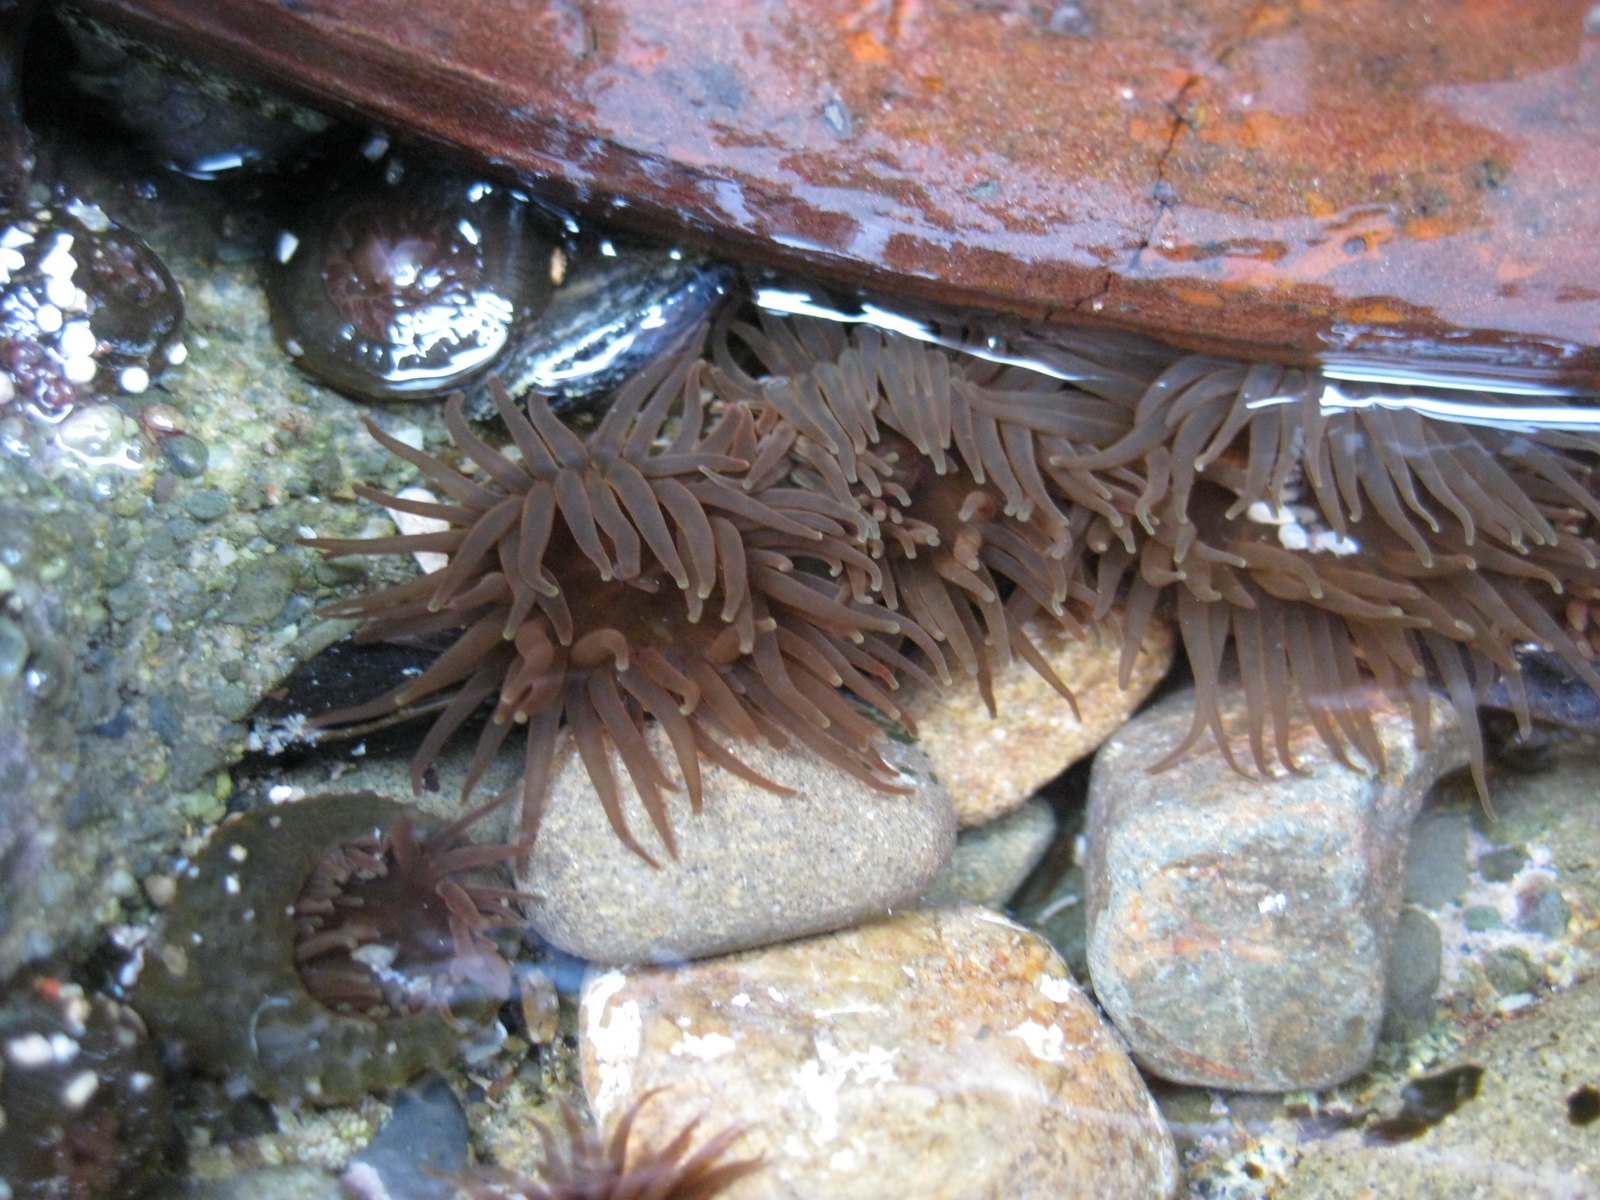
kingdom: Animalia
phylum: Cnidaria
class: Anthozoa
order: Actiniaria
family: Actiniidae
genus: Isactinia
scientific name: Isactinia olivacea
